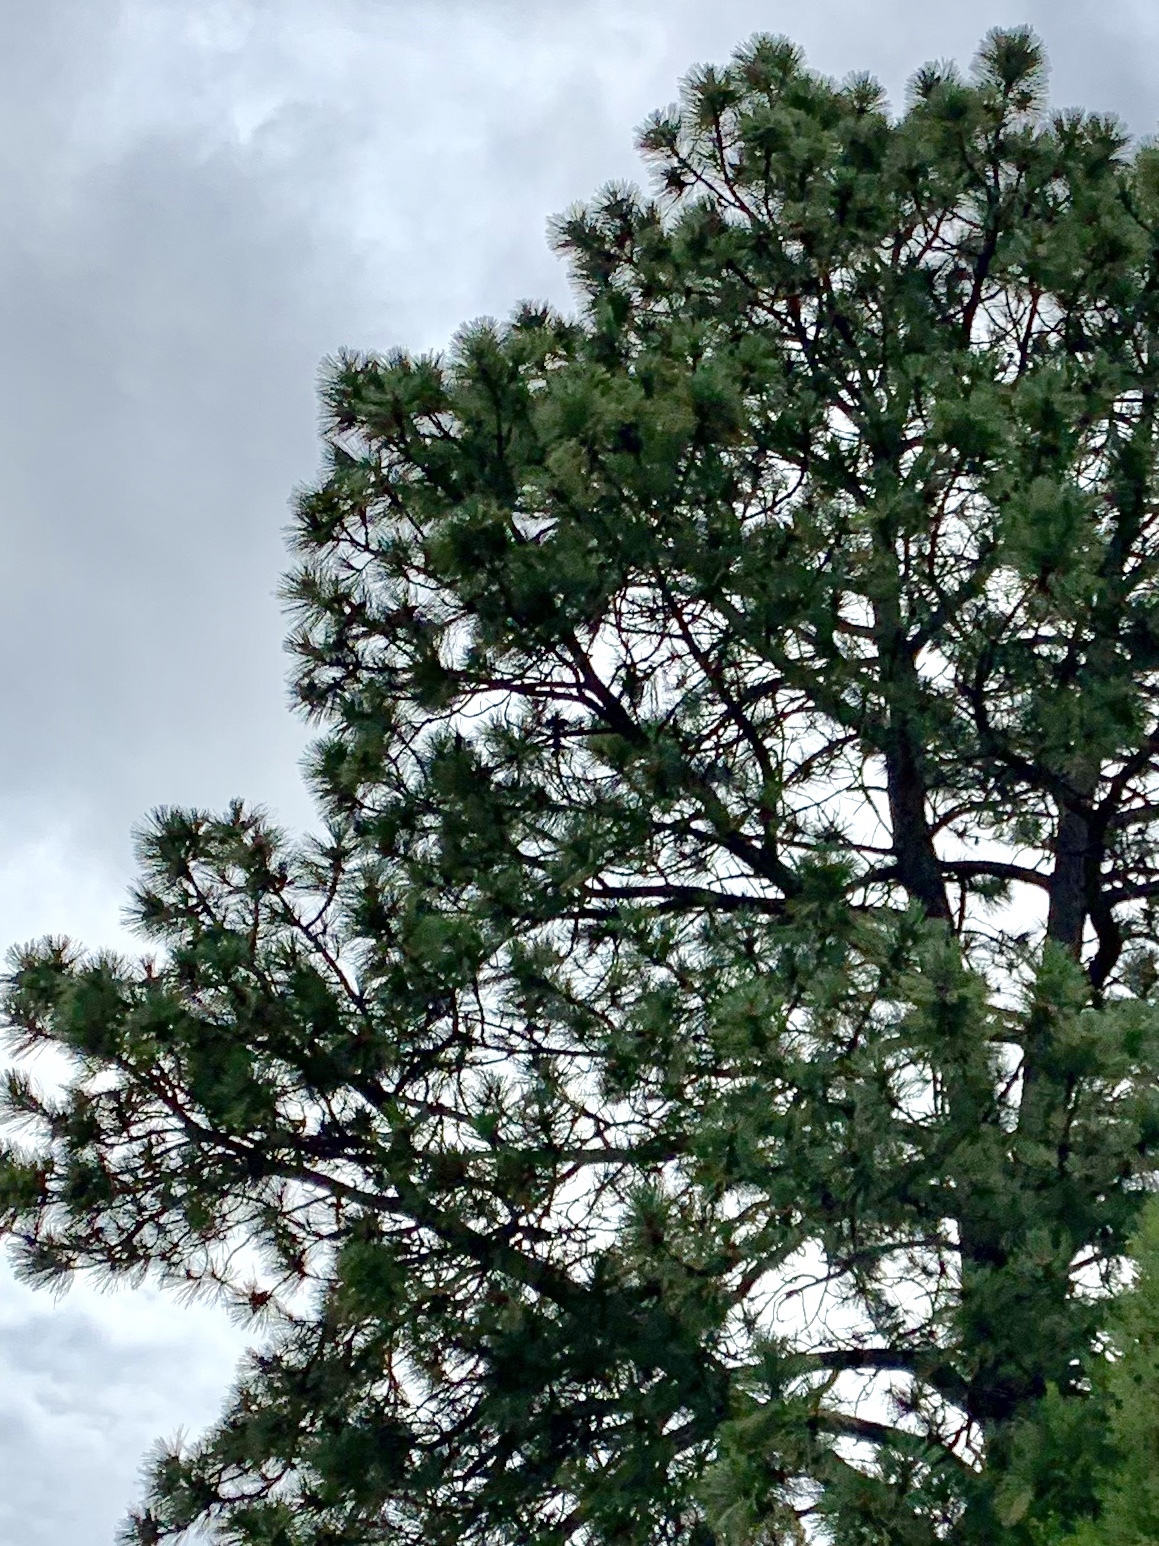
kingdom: Plantae
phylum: Tracheophyta
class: Pinopsida
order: Pinales
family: Pinaceae
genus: Pinus
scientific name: Pinus ponderosa
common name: Western yellow-pine
